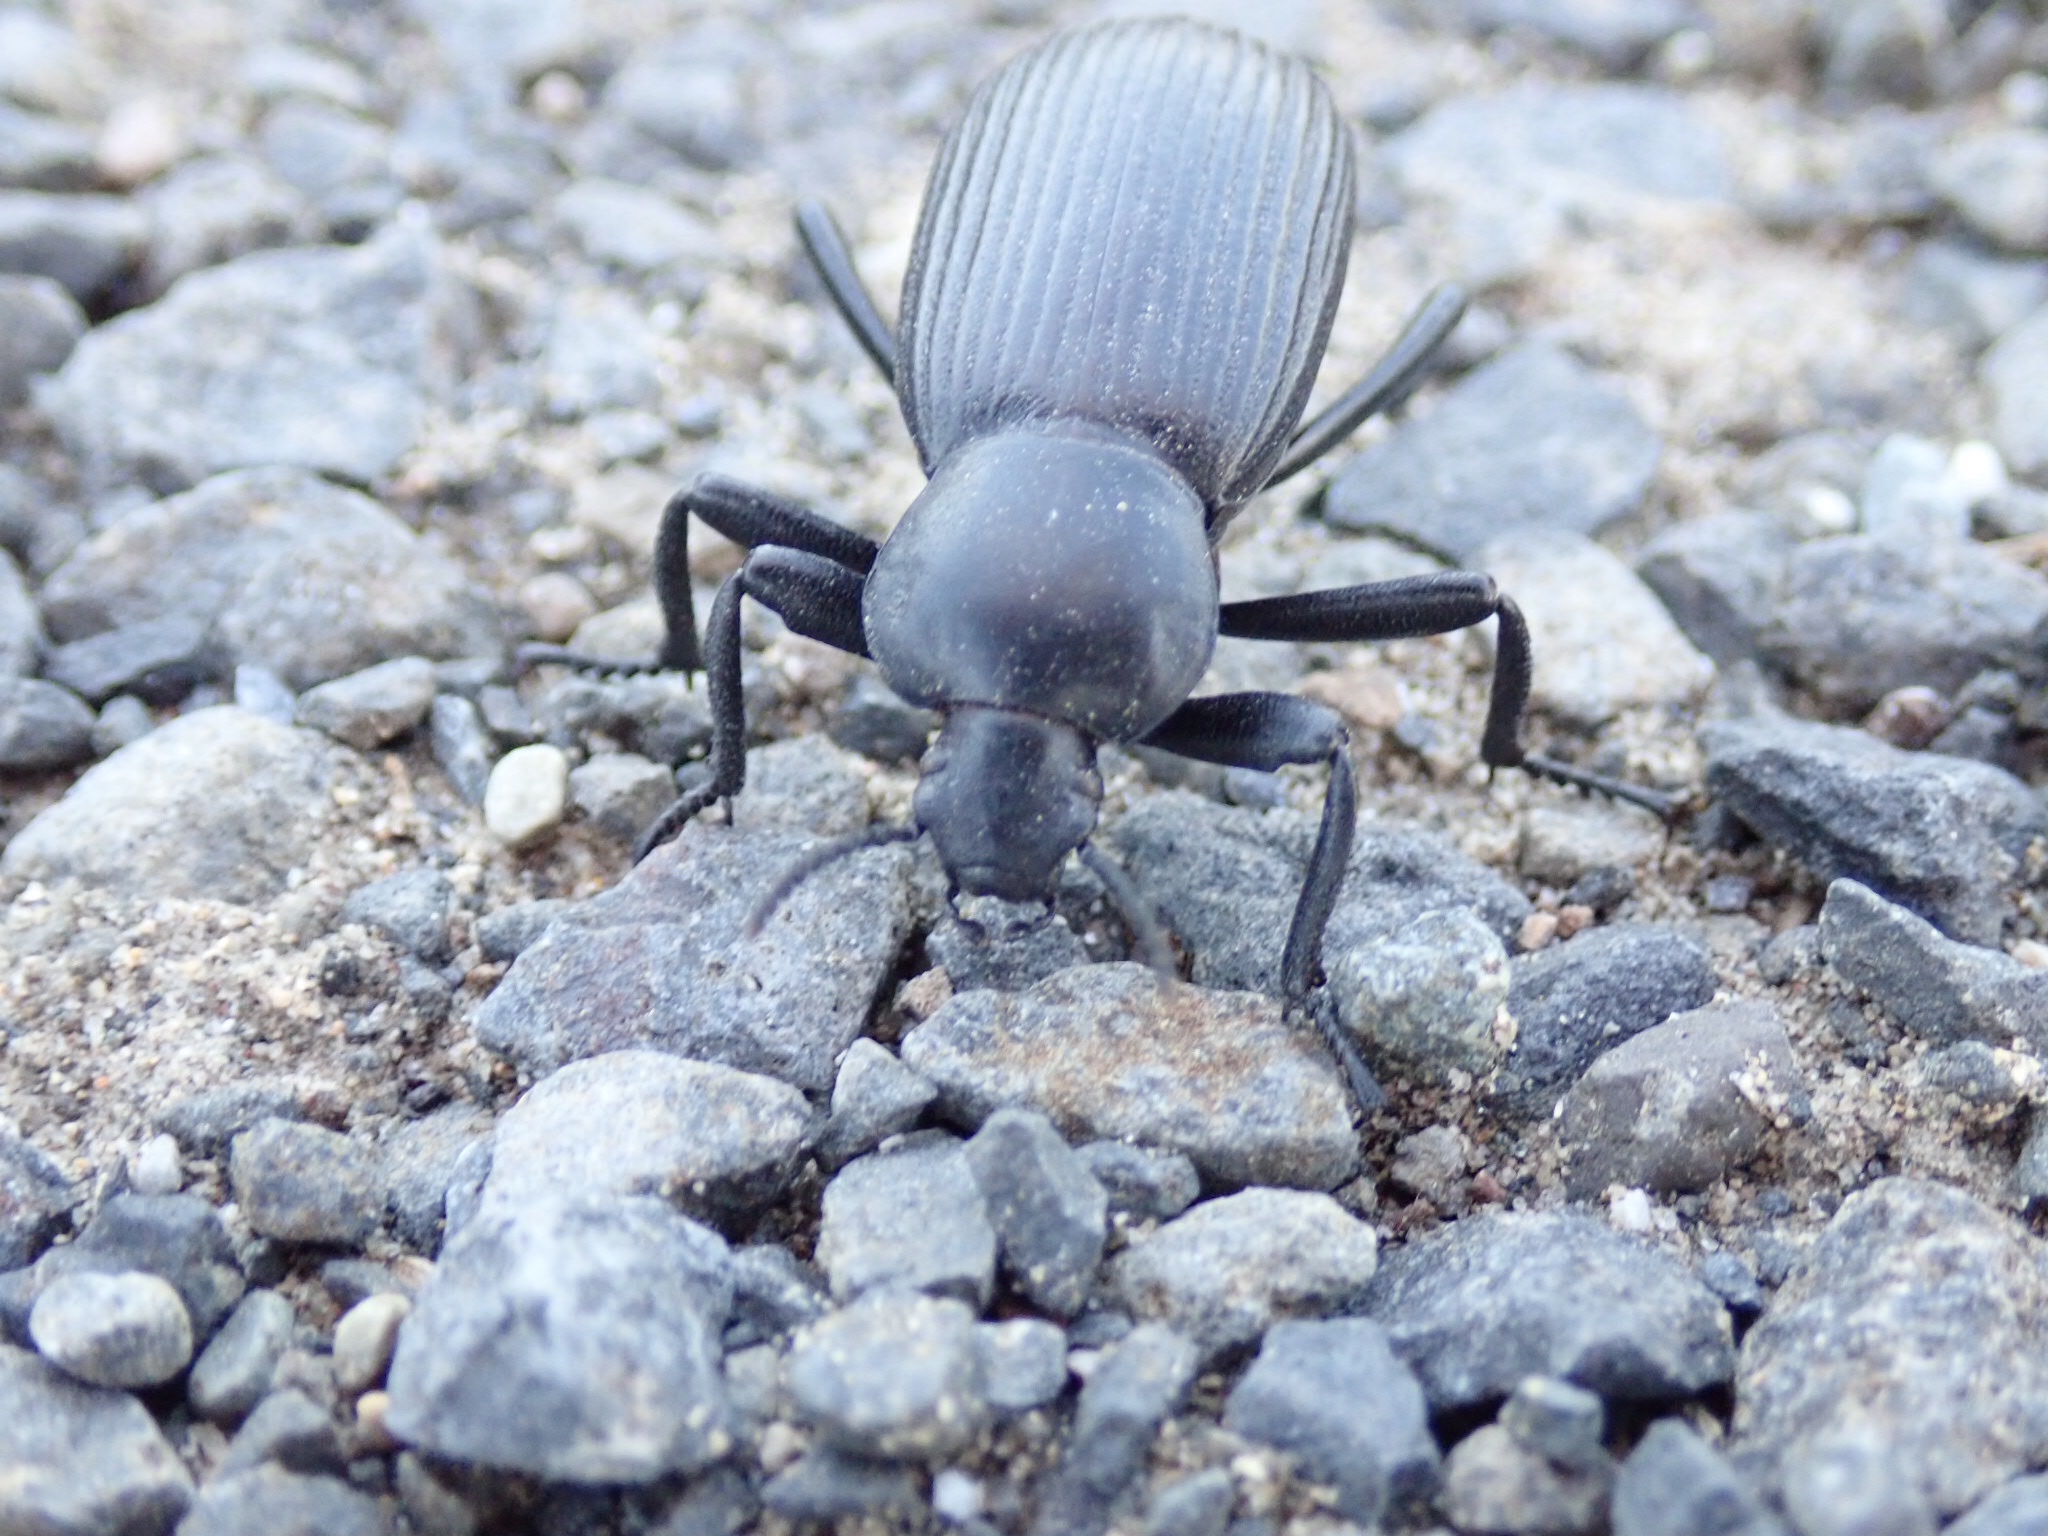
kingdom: Animalia
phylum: Arthropoda
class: Insecta
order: Coleoptera
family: Tenebrionidae
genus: Eleodes
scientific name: Eleodes obscura
